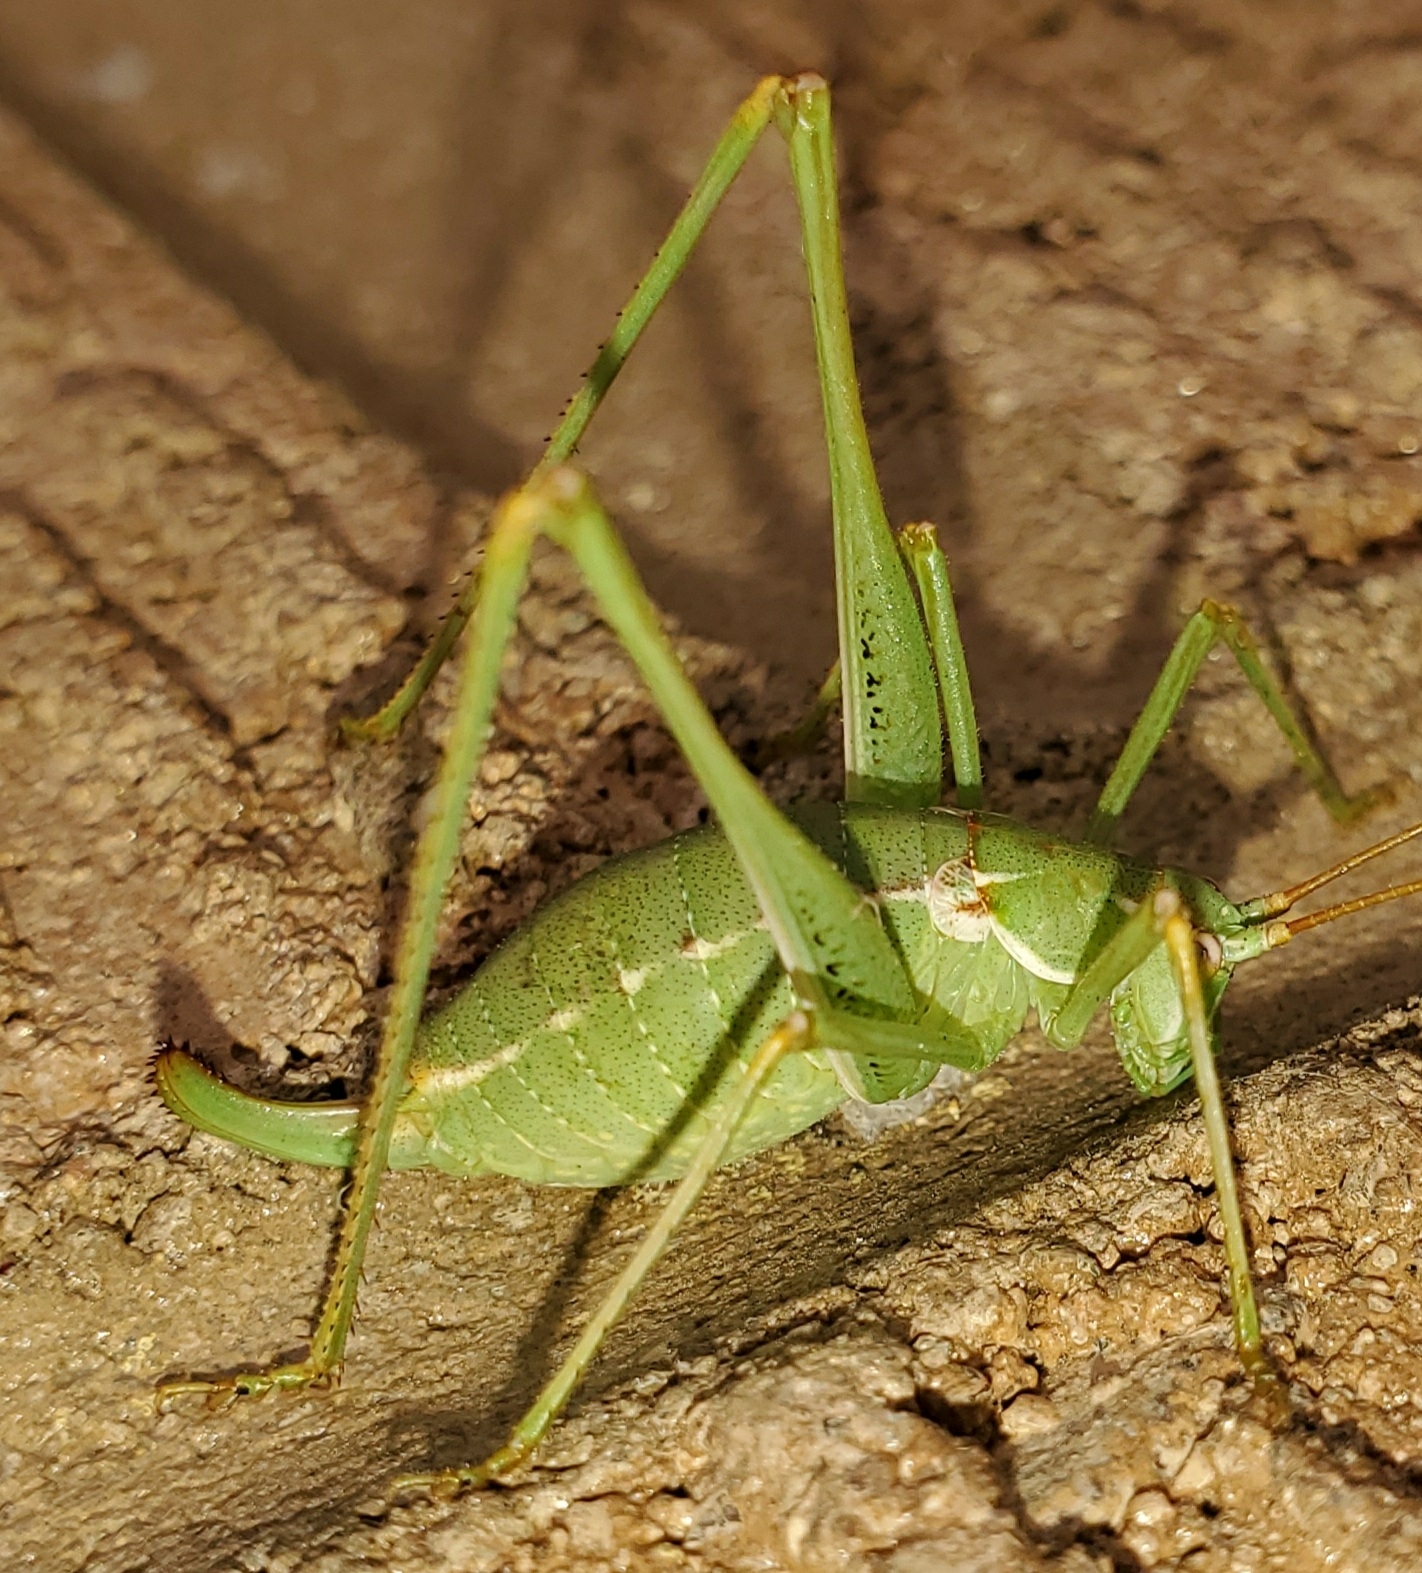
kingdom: Animalia
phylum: Arthropoda
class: Insecta
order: Orthoptera
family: Tettigoniidae
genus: Obolopteryx
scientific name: Obolopteryx brevihastata
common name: Common short-winged katydid
